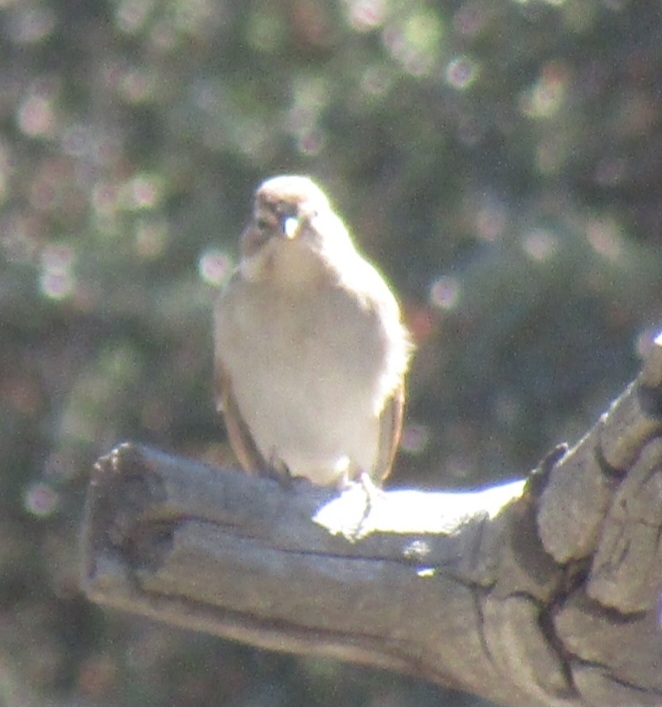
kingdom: Animalia
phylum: Chordata
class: Aves
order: Passeriformes
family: Passerellidae
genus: Spizella
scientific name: Spizella passerina
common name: Chipping sparrow
